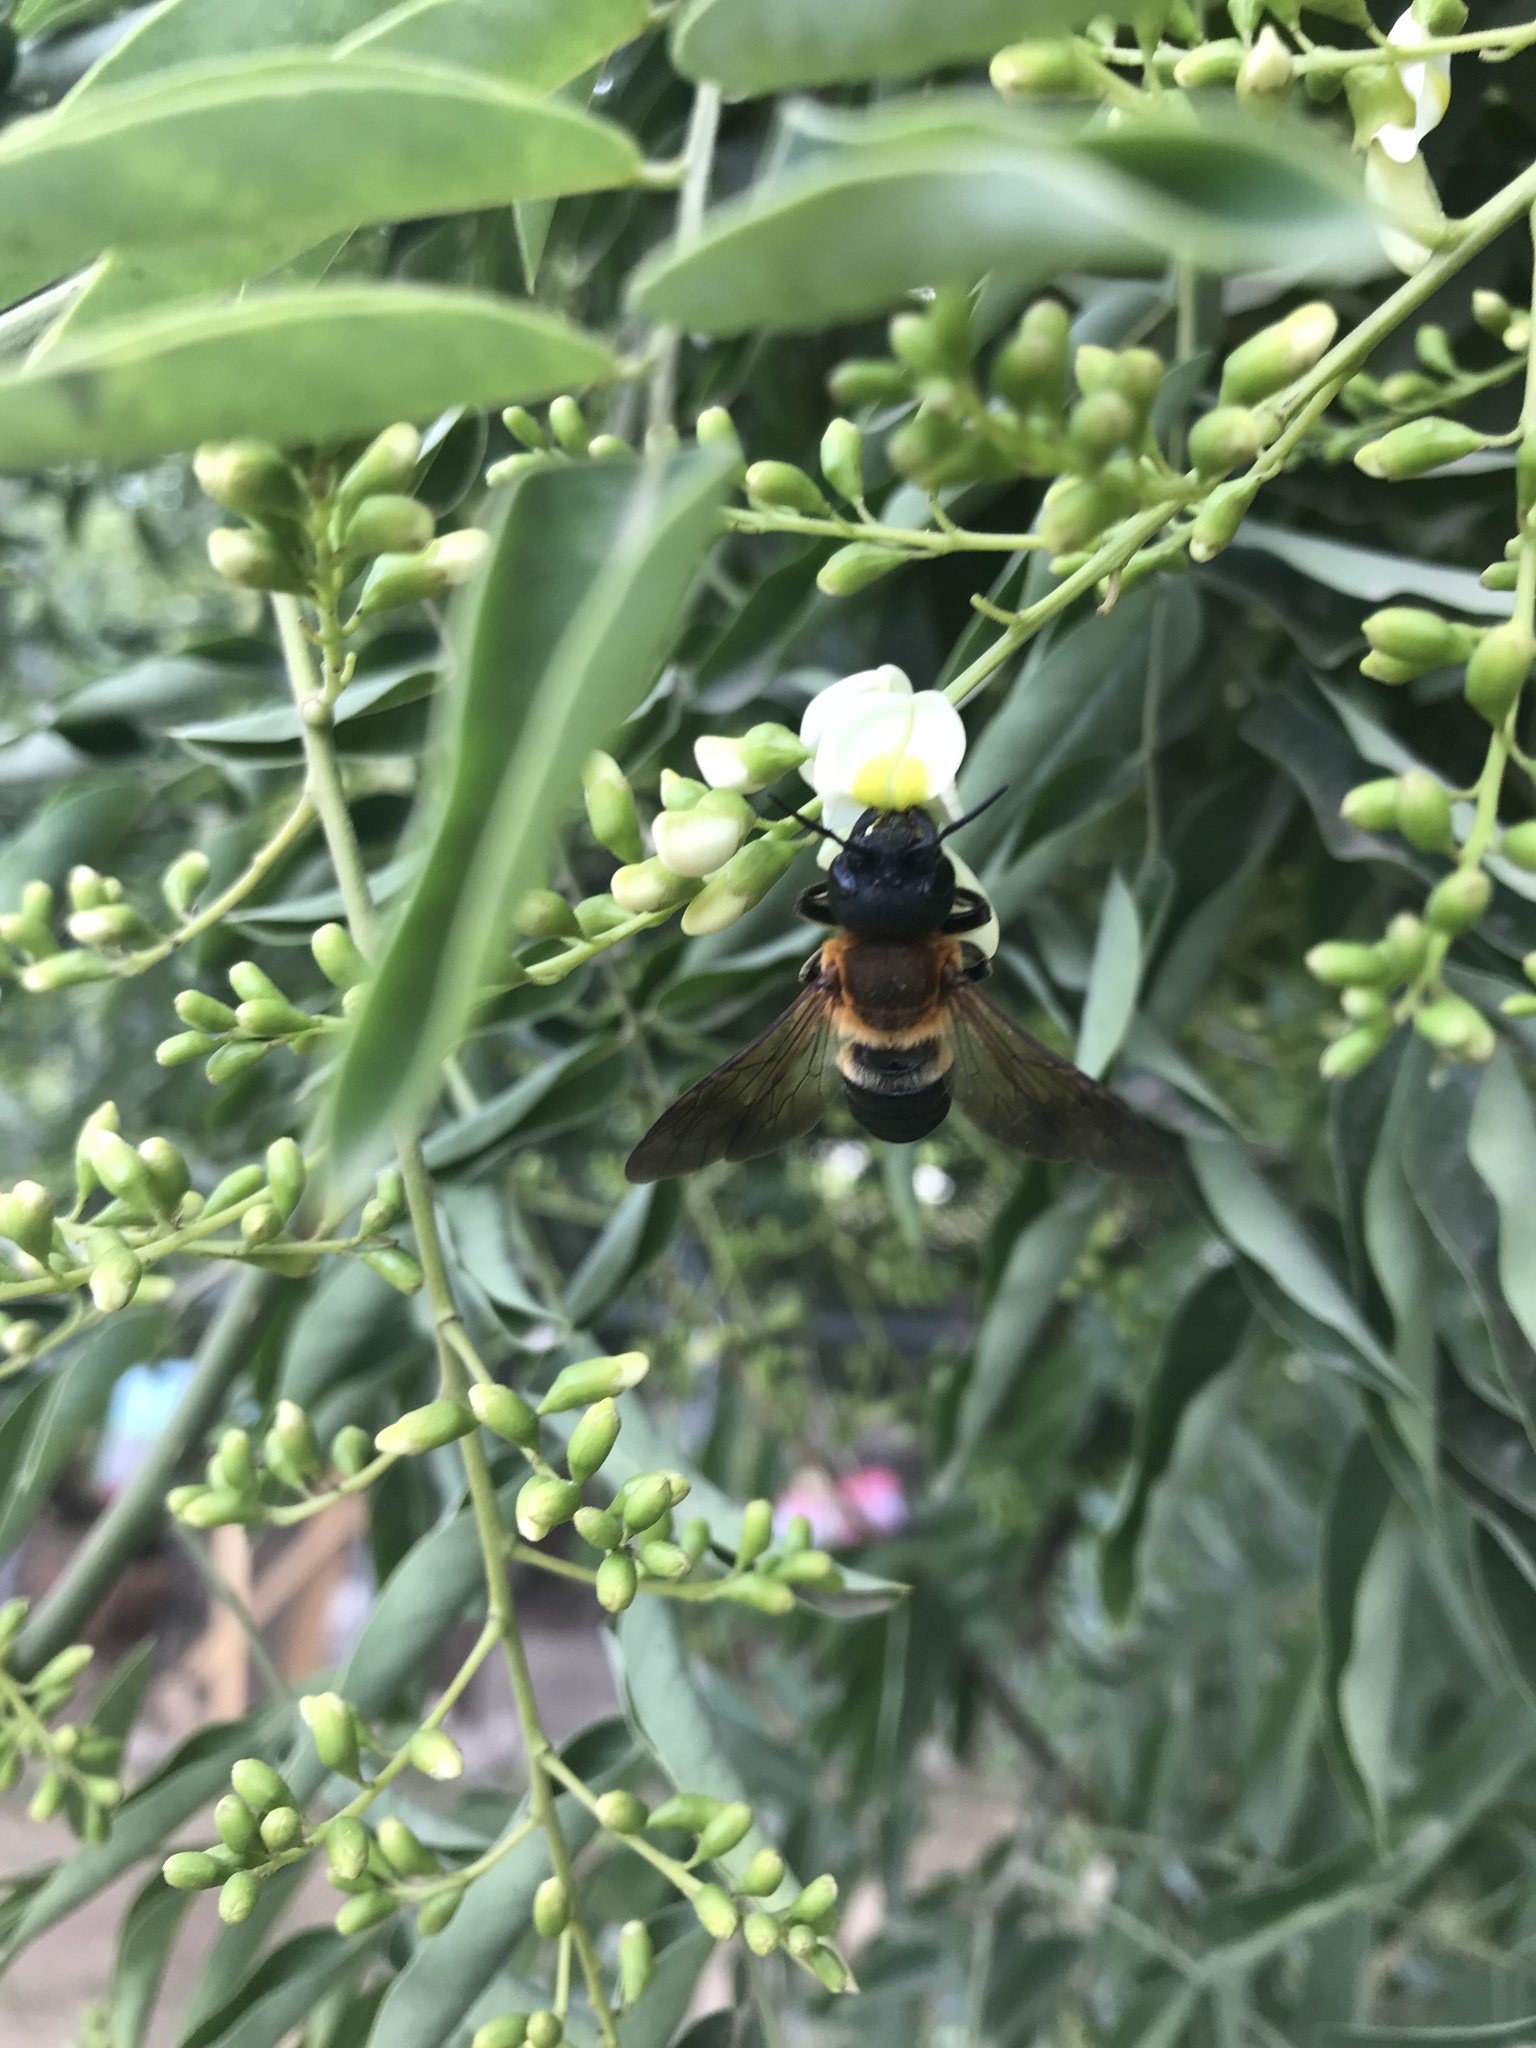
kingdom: Animalia
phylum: Arthropoda
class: Insecta
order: Hymenoptera
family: Megachilidae
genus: Megachile
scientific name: Megachile sculpturalis
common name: Sculptured resin bee
